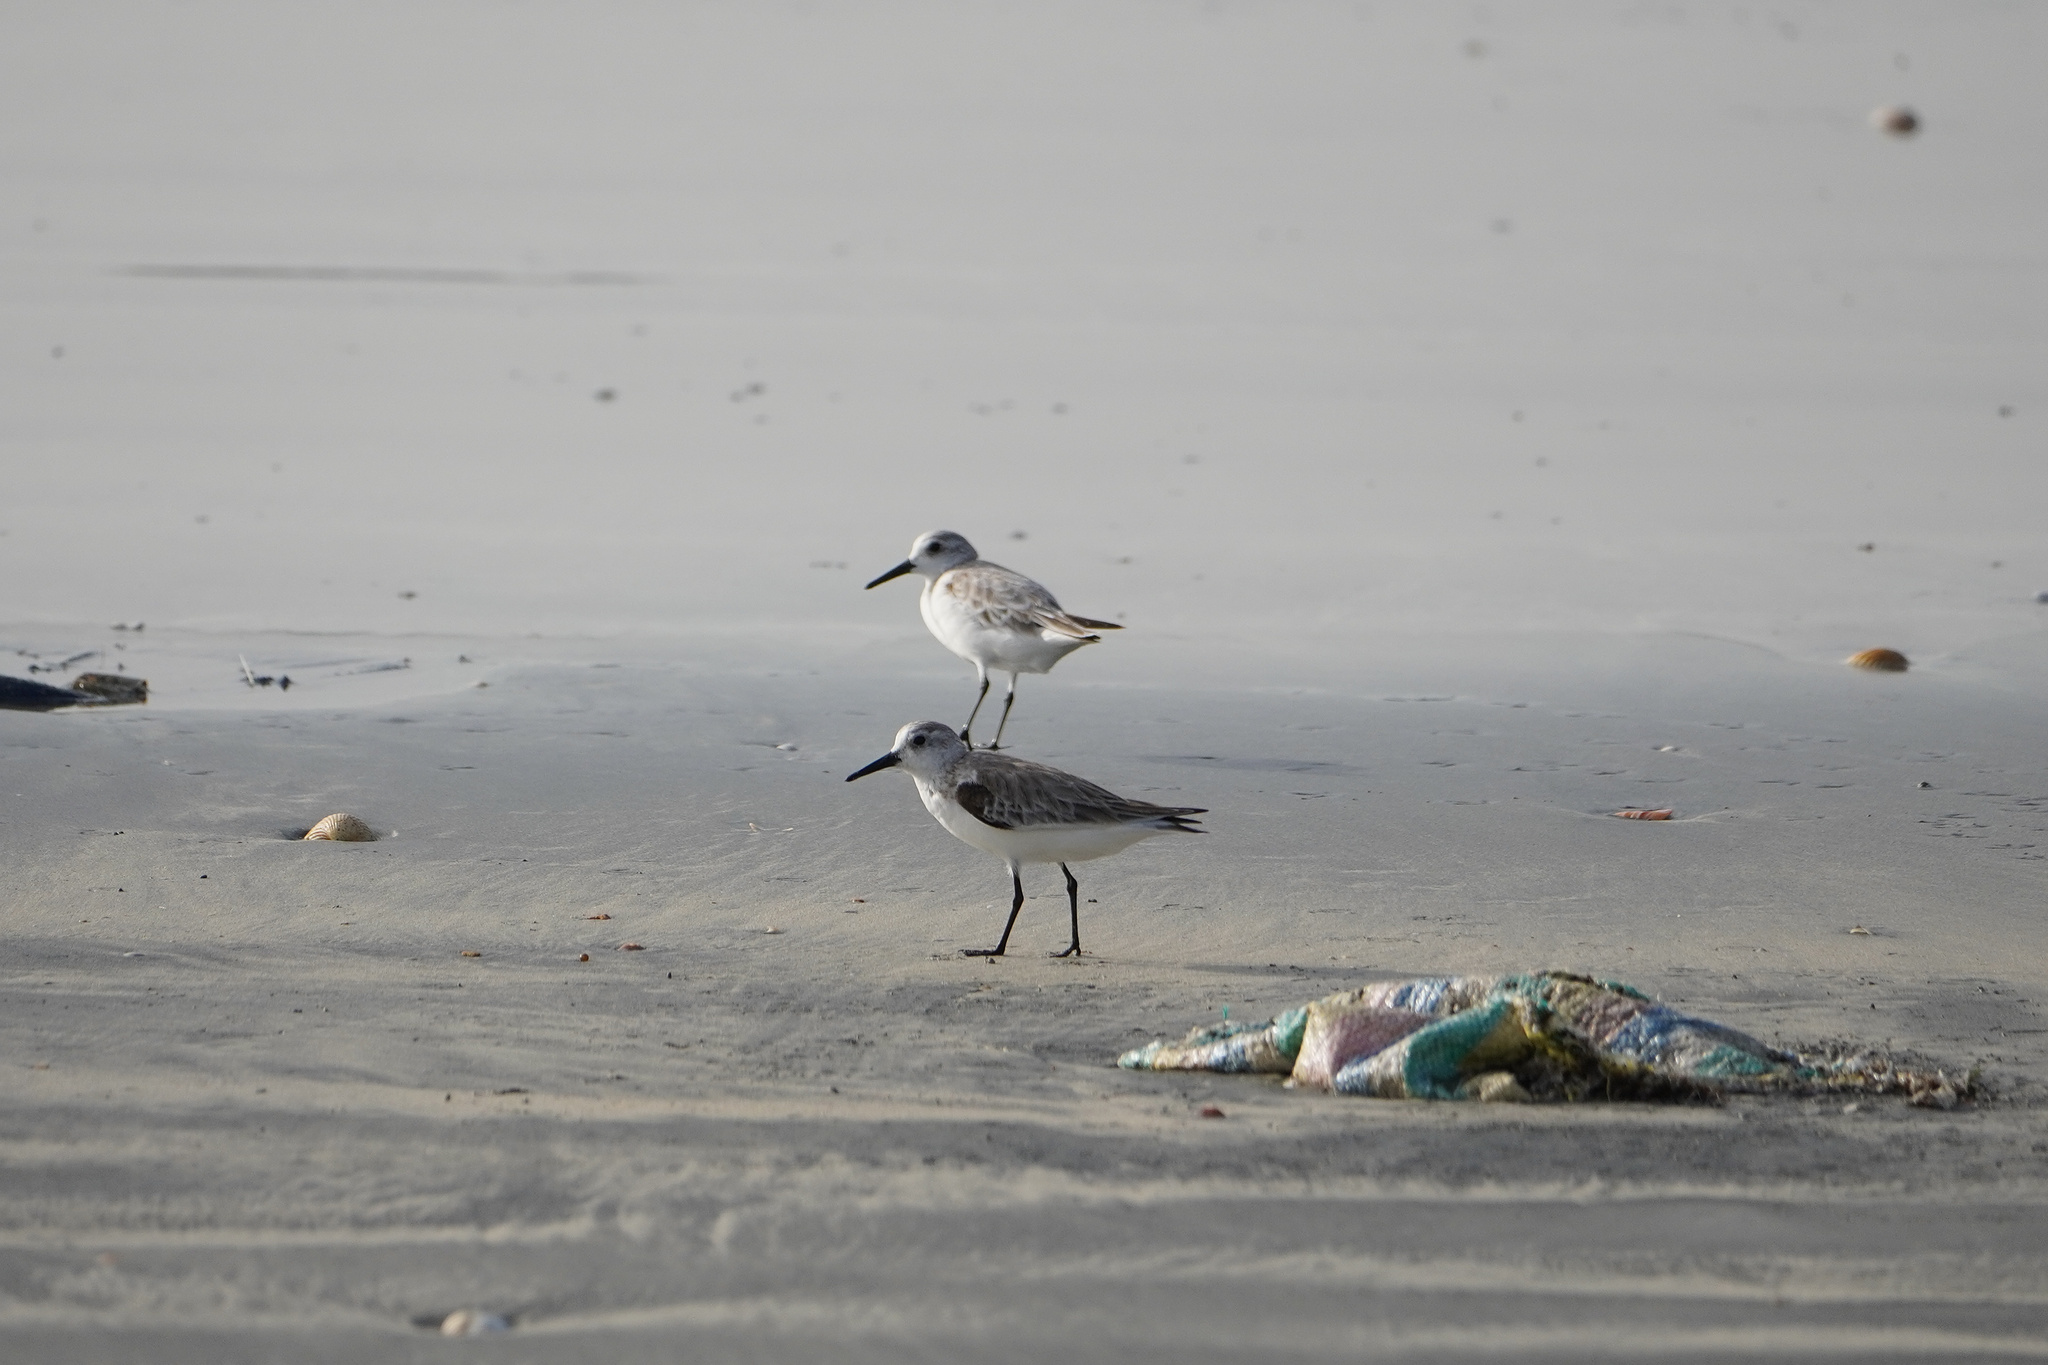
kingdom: Animalia
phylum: Chordata
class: Aves
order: Charadriiformes
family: Scolopacidae
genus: Calidris
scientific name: Calidris alba
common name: Sanderling
